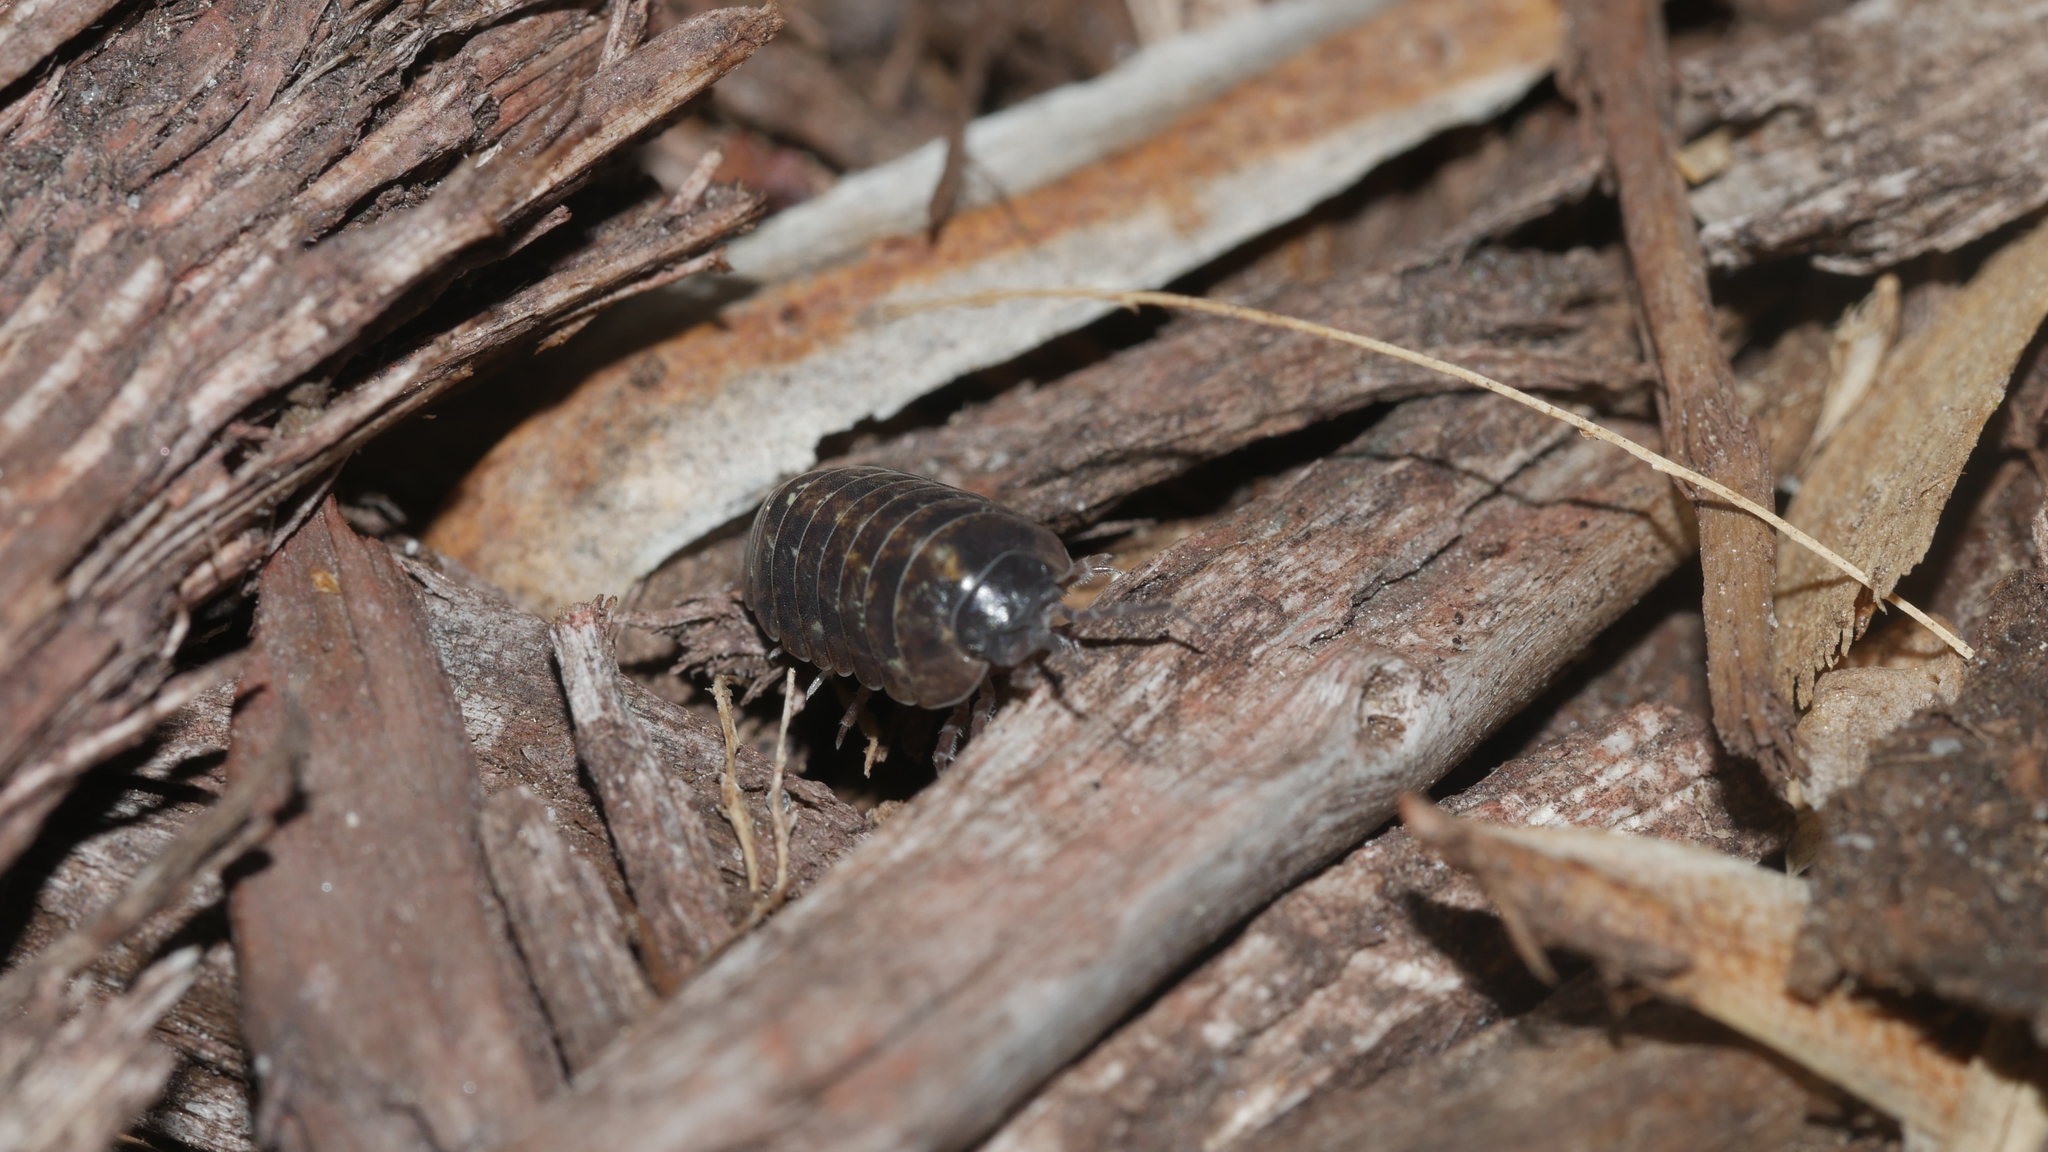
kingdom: Animalia
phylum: Arthropoda
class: Malacostraca
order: Isopoda
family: Armadillidiidae
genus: Armadillidium
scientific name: Armadillidium vulgare
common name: Common pill woodlouse
